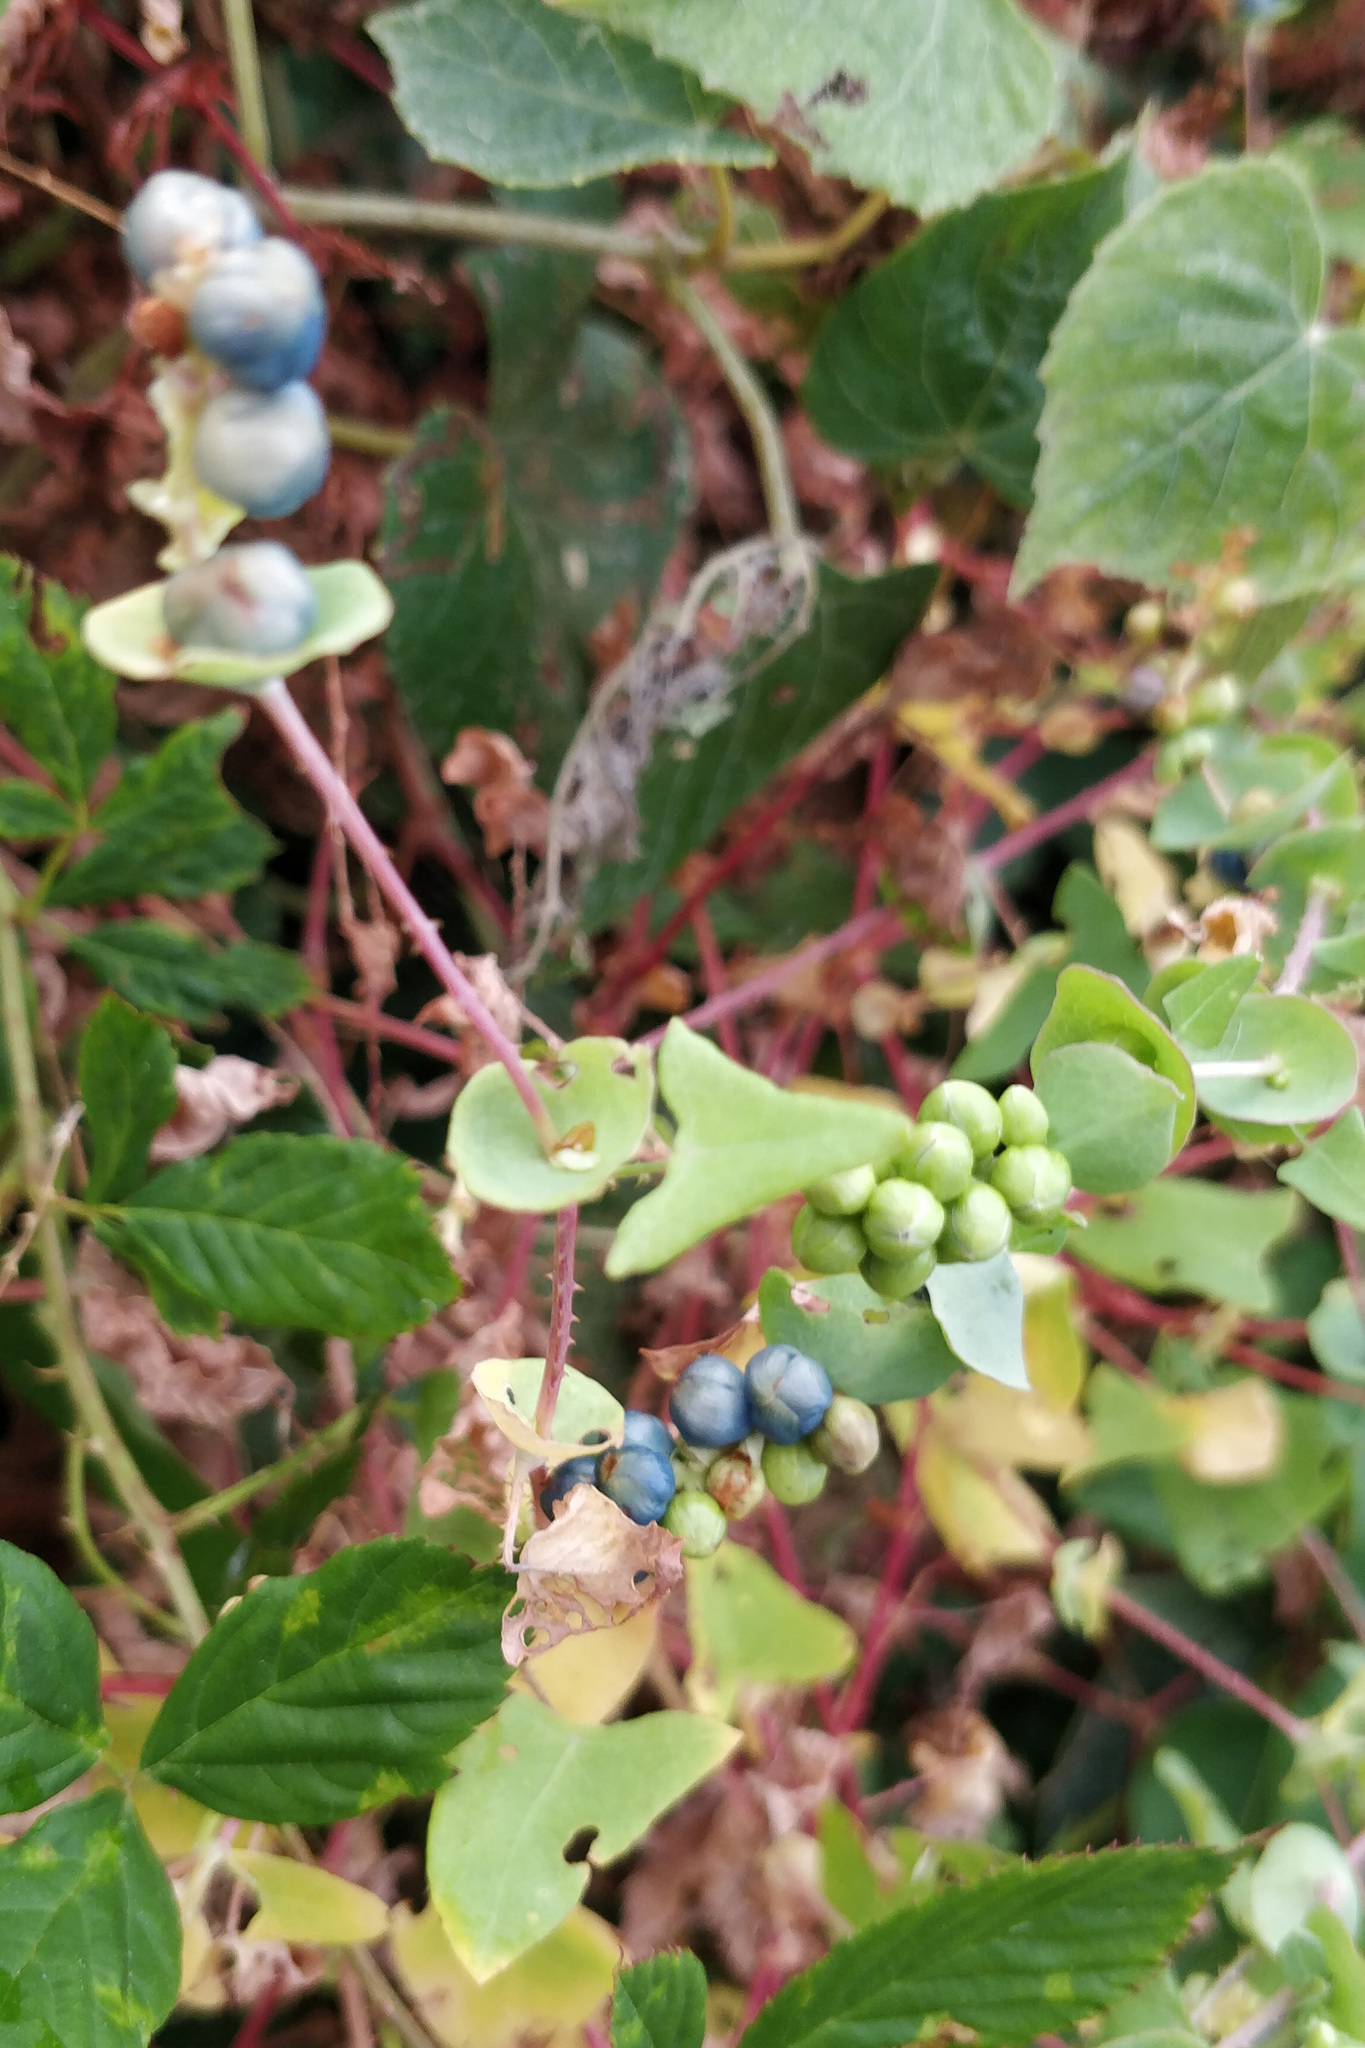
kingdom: Plantae
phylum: Tracheophyta
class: Magnoliopsida
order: Caryophyllales
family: Polygonaceae
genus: Persicaria
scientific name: Persicaria perfoliata
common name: Asiatic tearthumb
